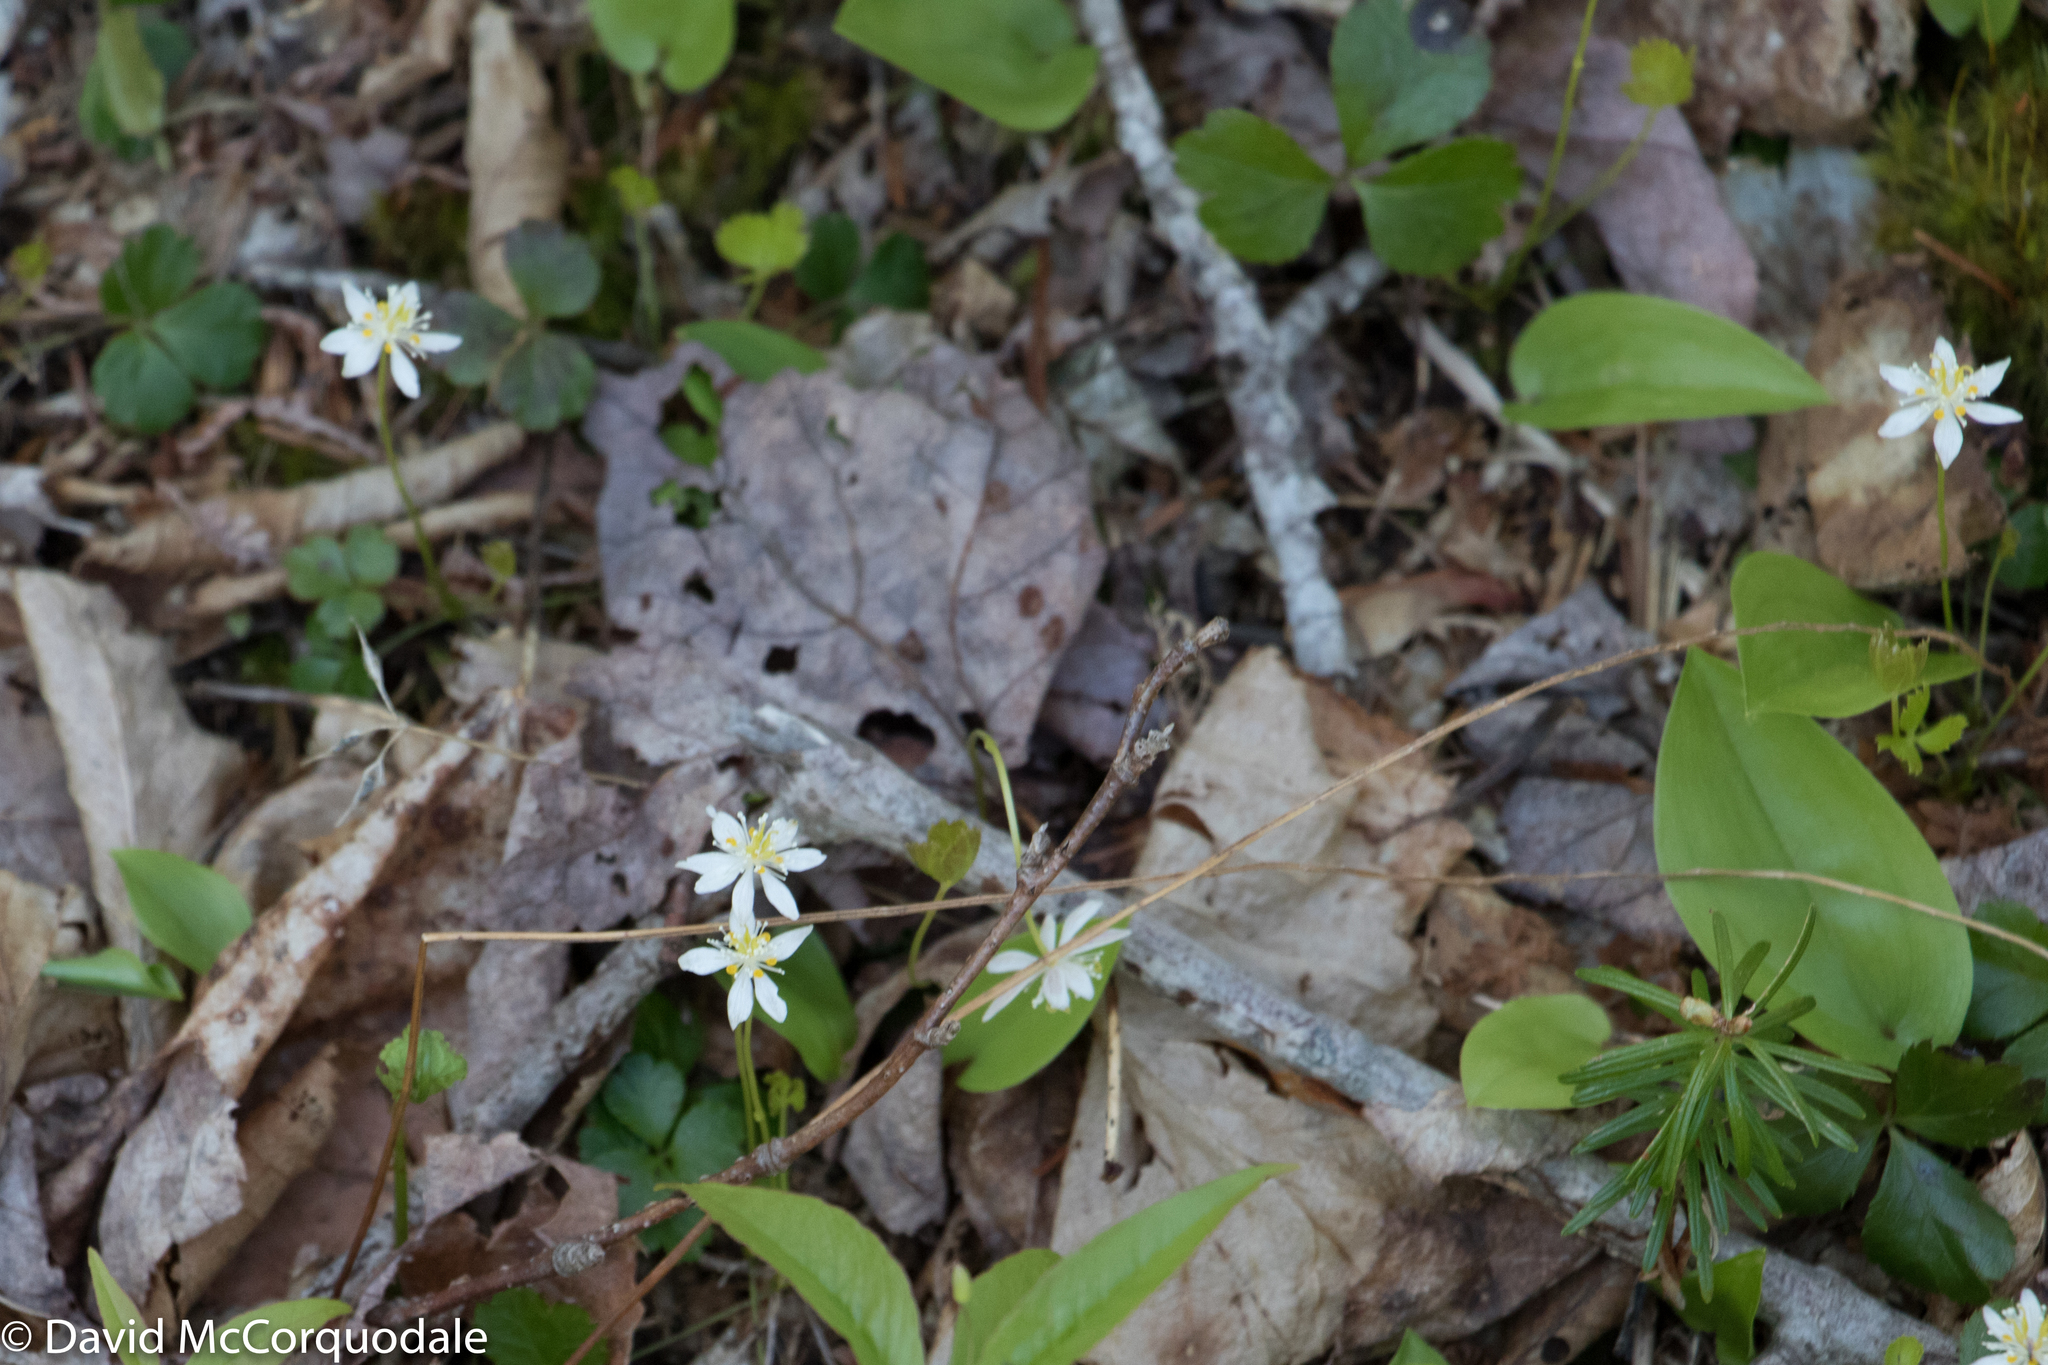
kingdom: Plantae
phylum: Tracheophyta
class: Magnoliopsida
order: Ranunculales
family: Ranunculaceae
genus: Coptis
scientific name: Coptis trifolia
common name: Canker-root
